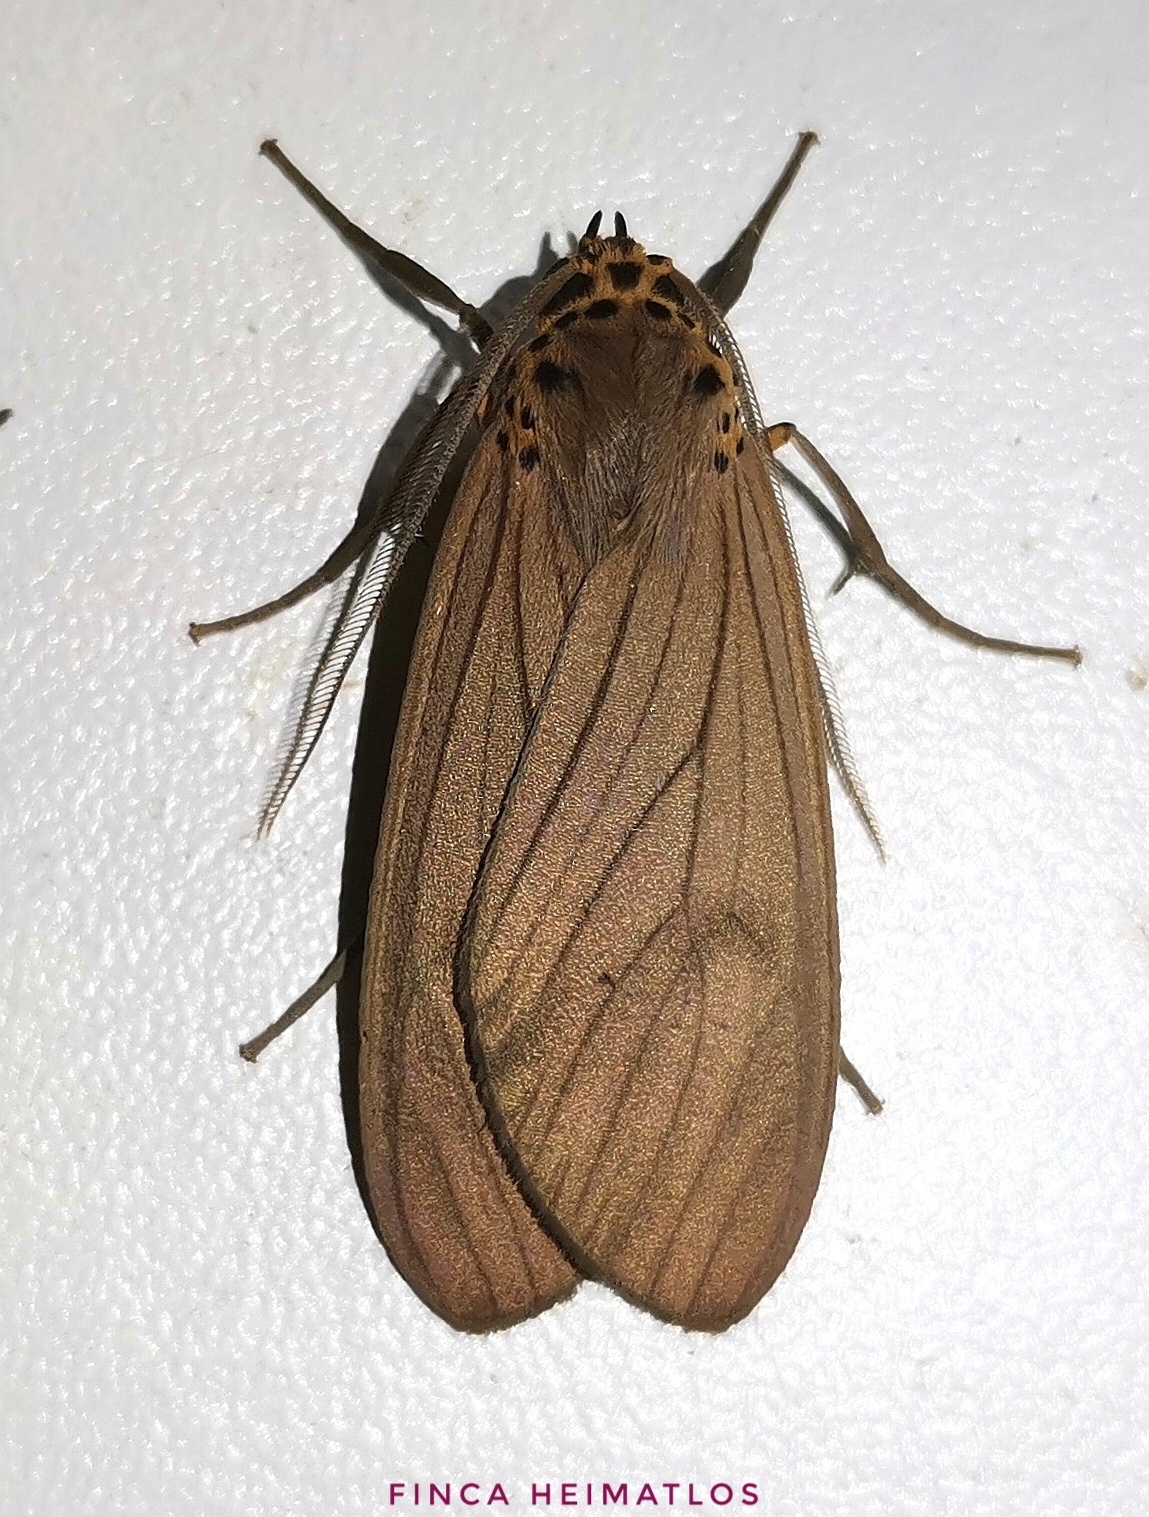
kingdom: Animalia
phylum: Arthropoda
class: Insecta
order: Lepidoptera
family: Erebidae
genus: Pelochyta
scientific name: Pelochyta affinis
